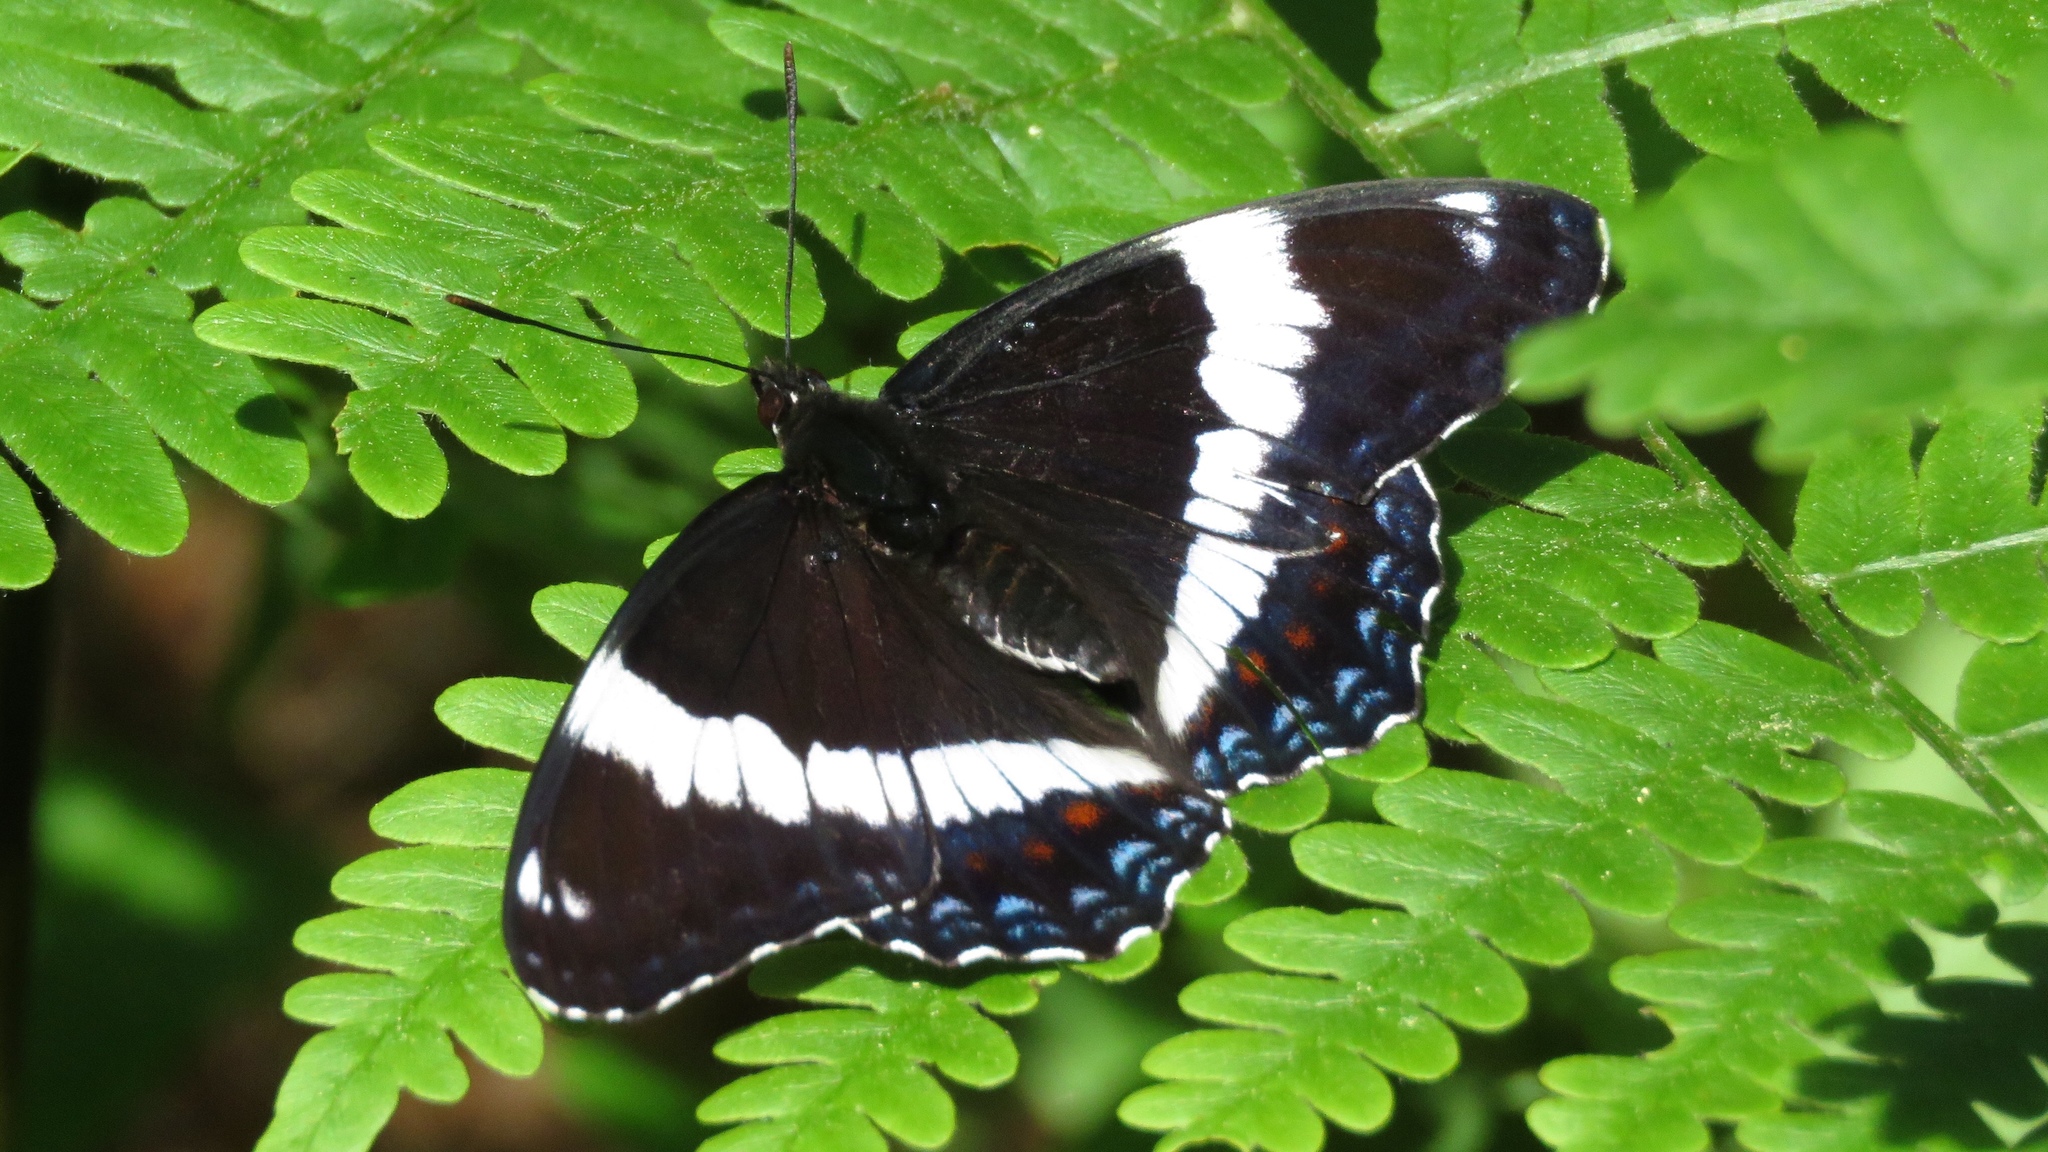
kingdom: Animalia
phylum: Arthropoda
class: Insecta
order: Lepidoptera
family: Nymphalidae
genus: Limenitis
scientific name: Limenitis arthemis
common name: Red-spotted admiral
